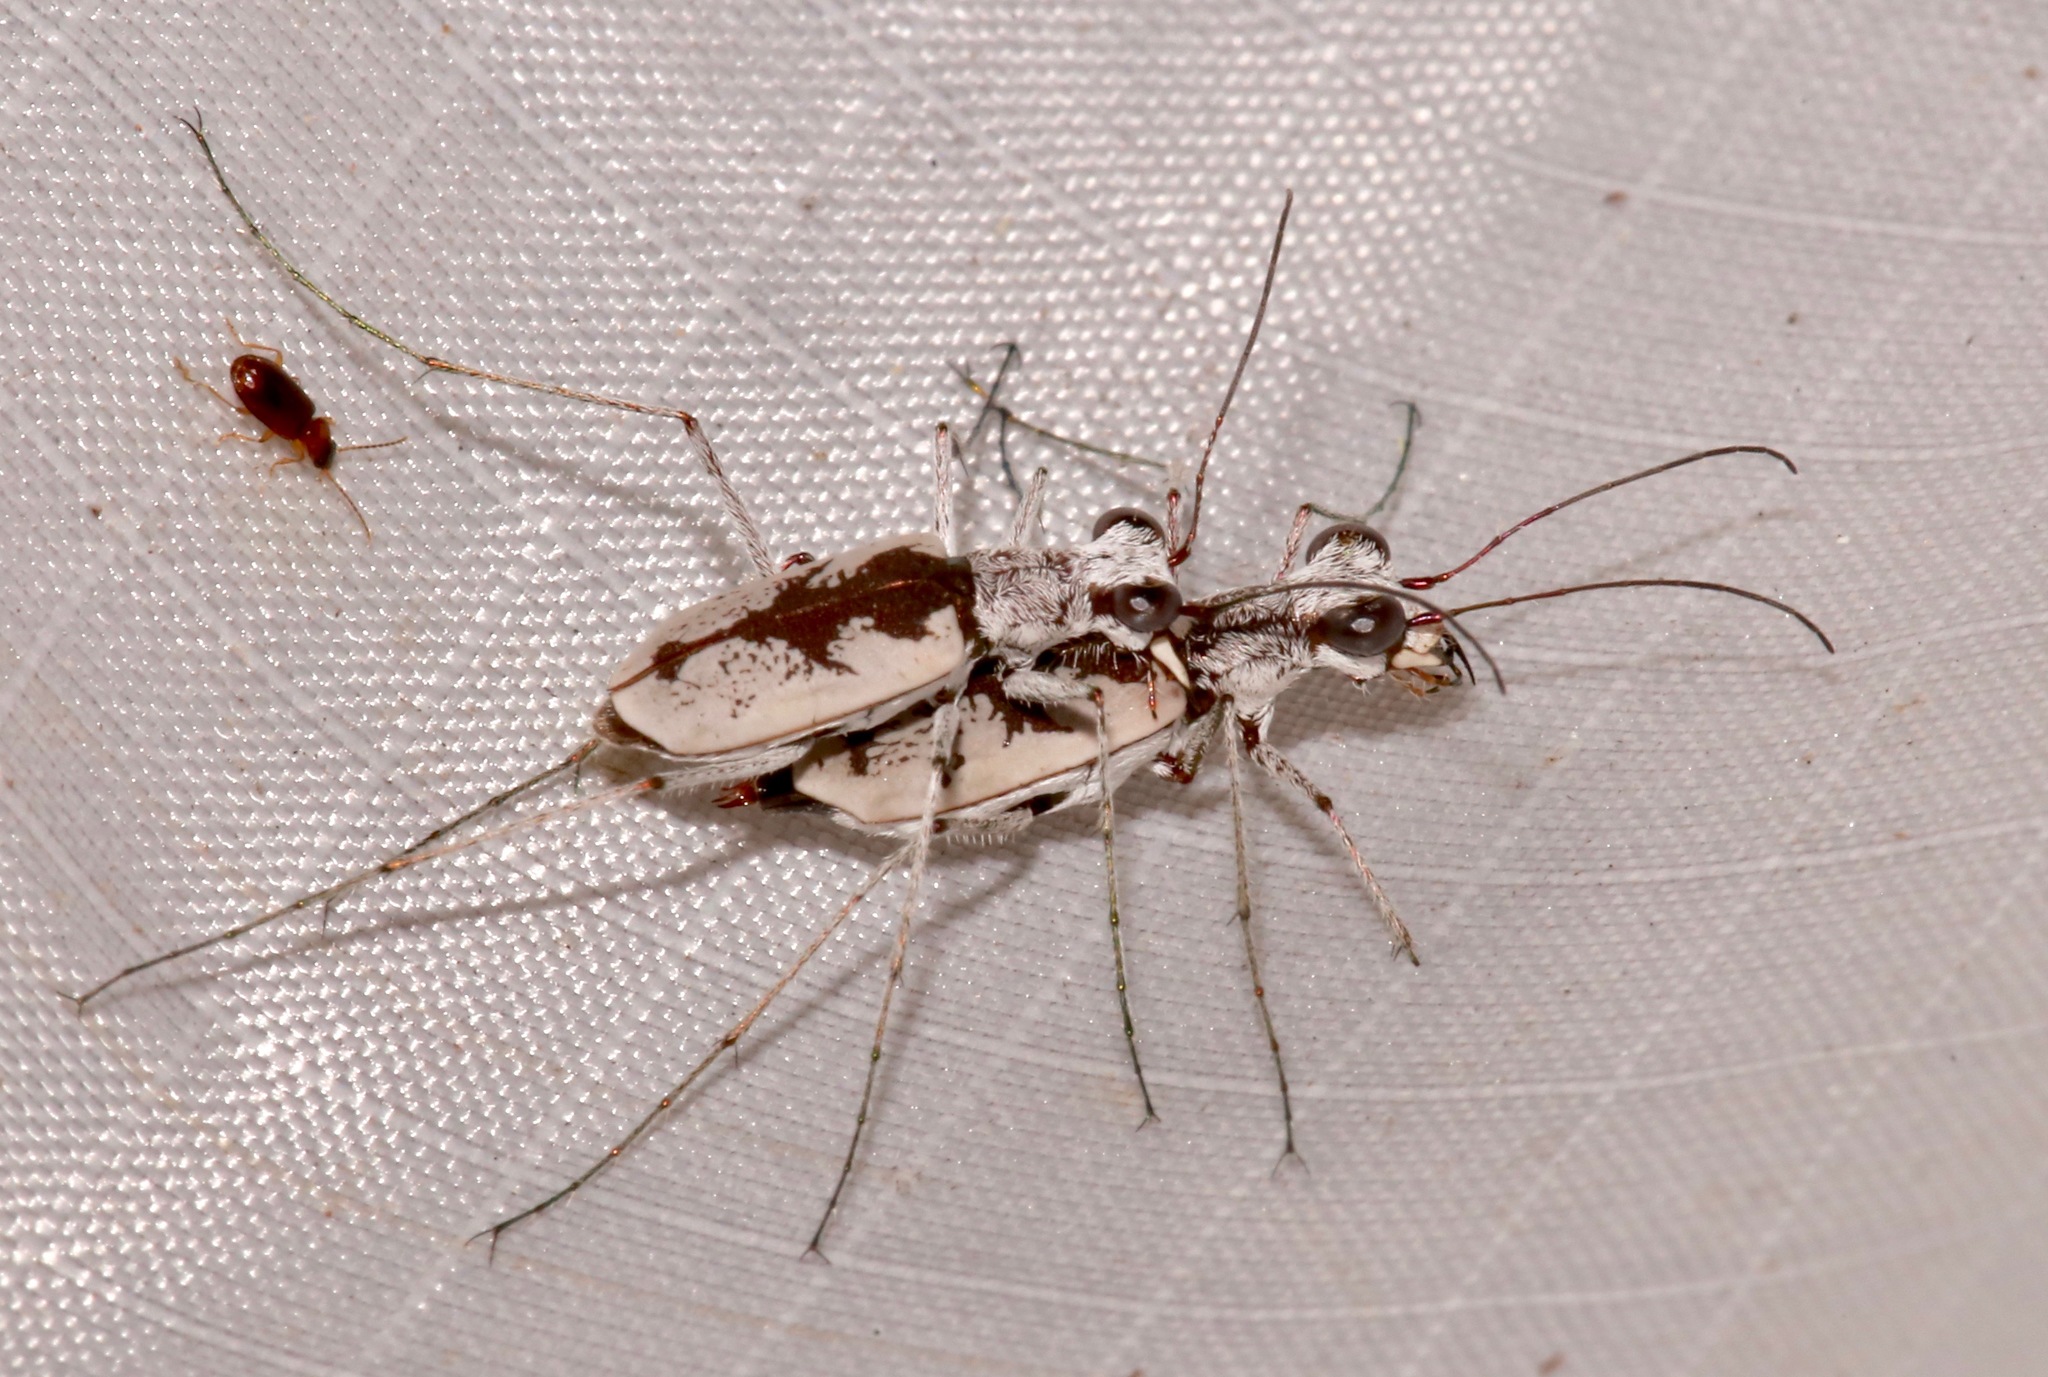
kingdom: Animalia
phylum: Arthropoda
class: Insecta
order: Coleoptera
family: Carabidae
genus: Ellipsoptera
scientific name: Ellipsoptera hirtilabris
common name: Moustached tiger beetle
